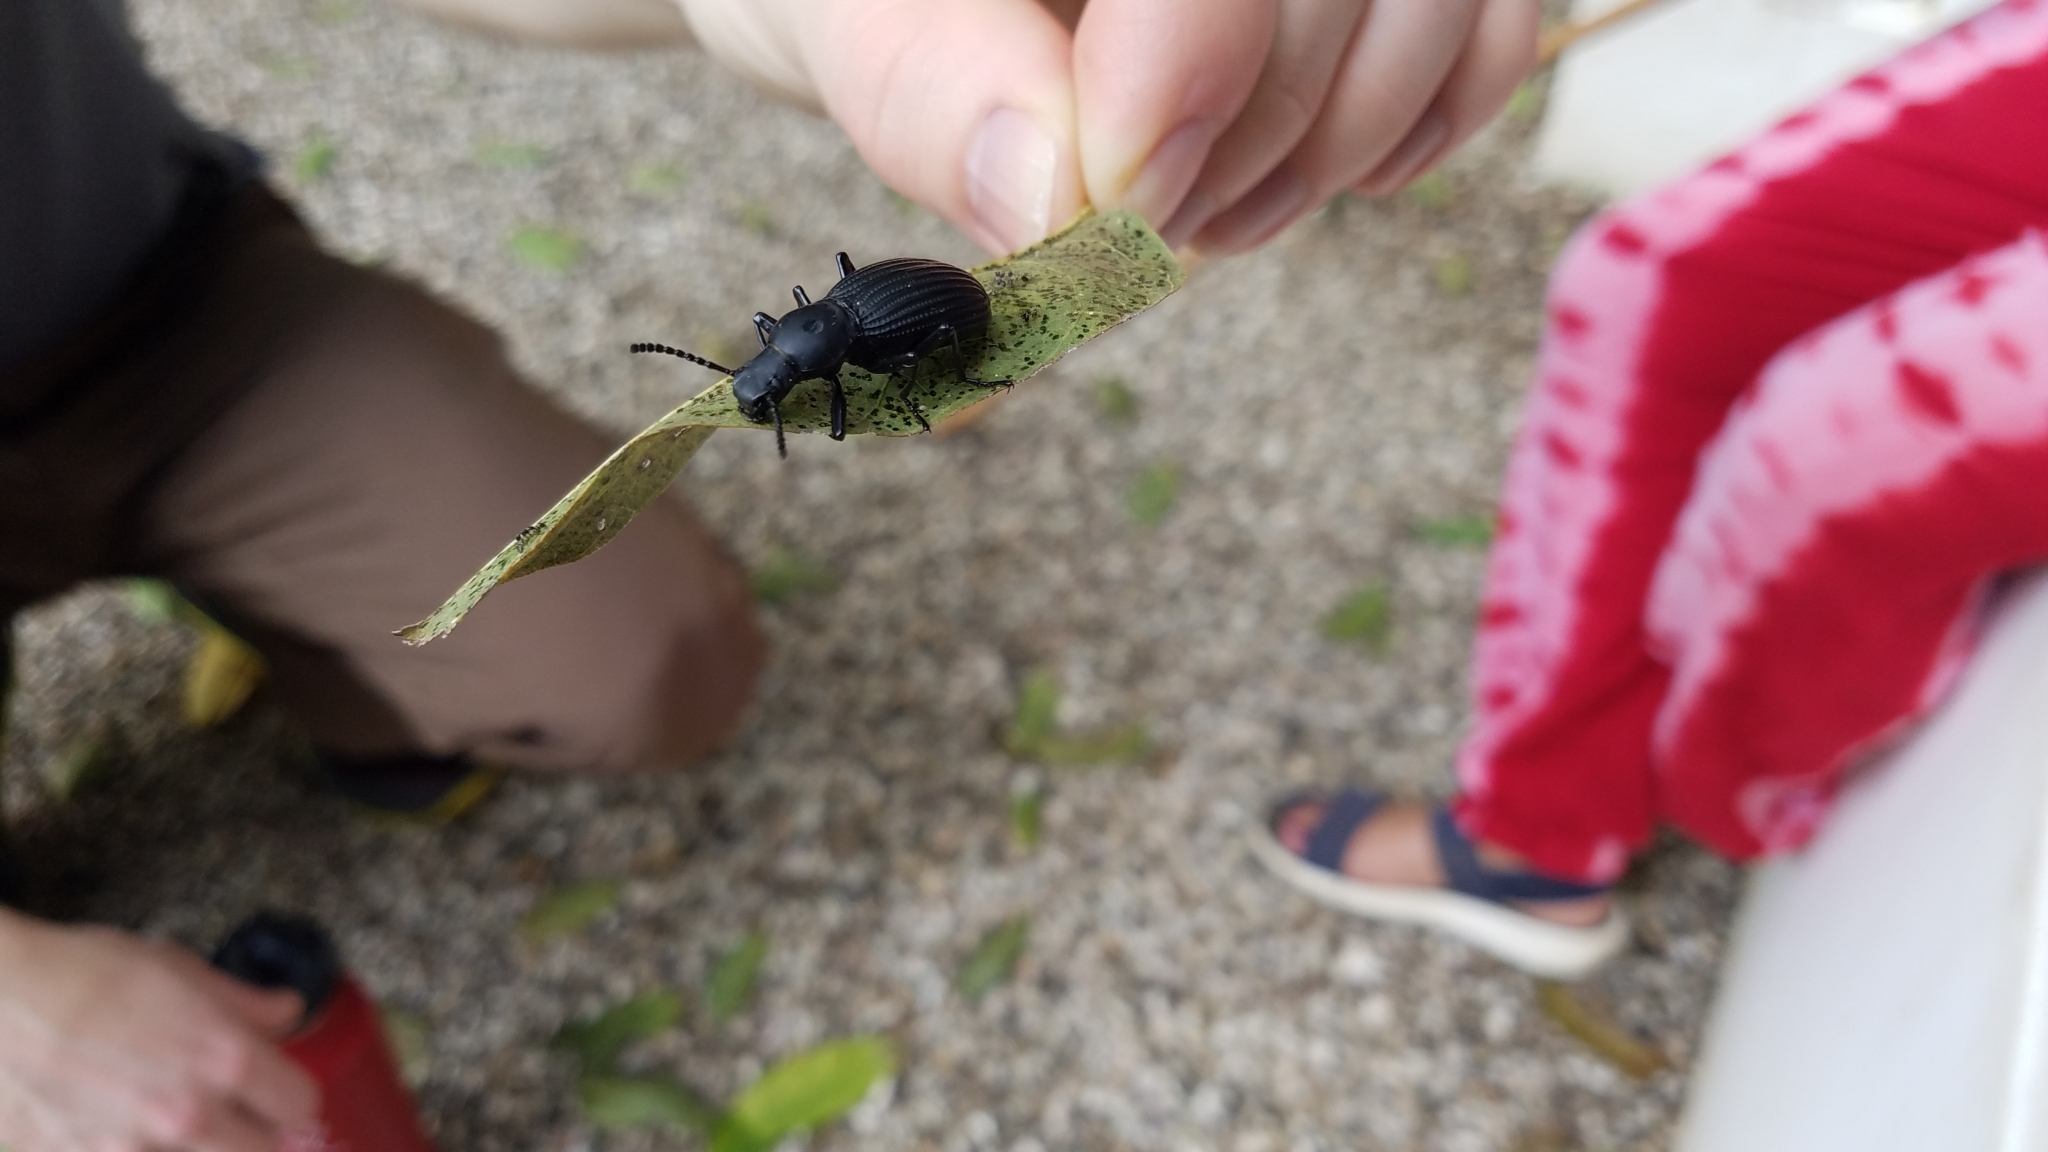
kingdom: Animalia
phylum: Arthropoda
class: Insecta
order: Coleoptera
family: Tenebrionidae
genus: Rhinandrus
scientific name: Rhinandrus elongatus
